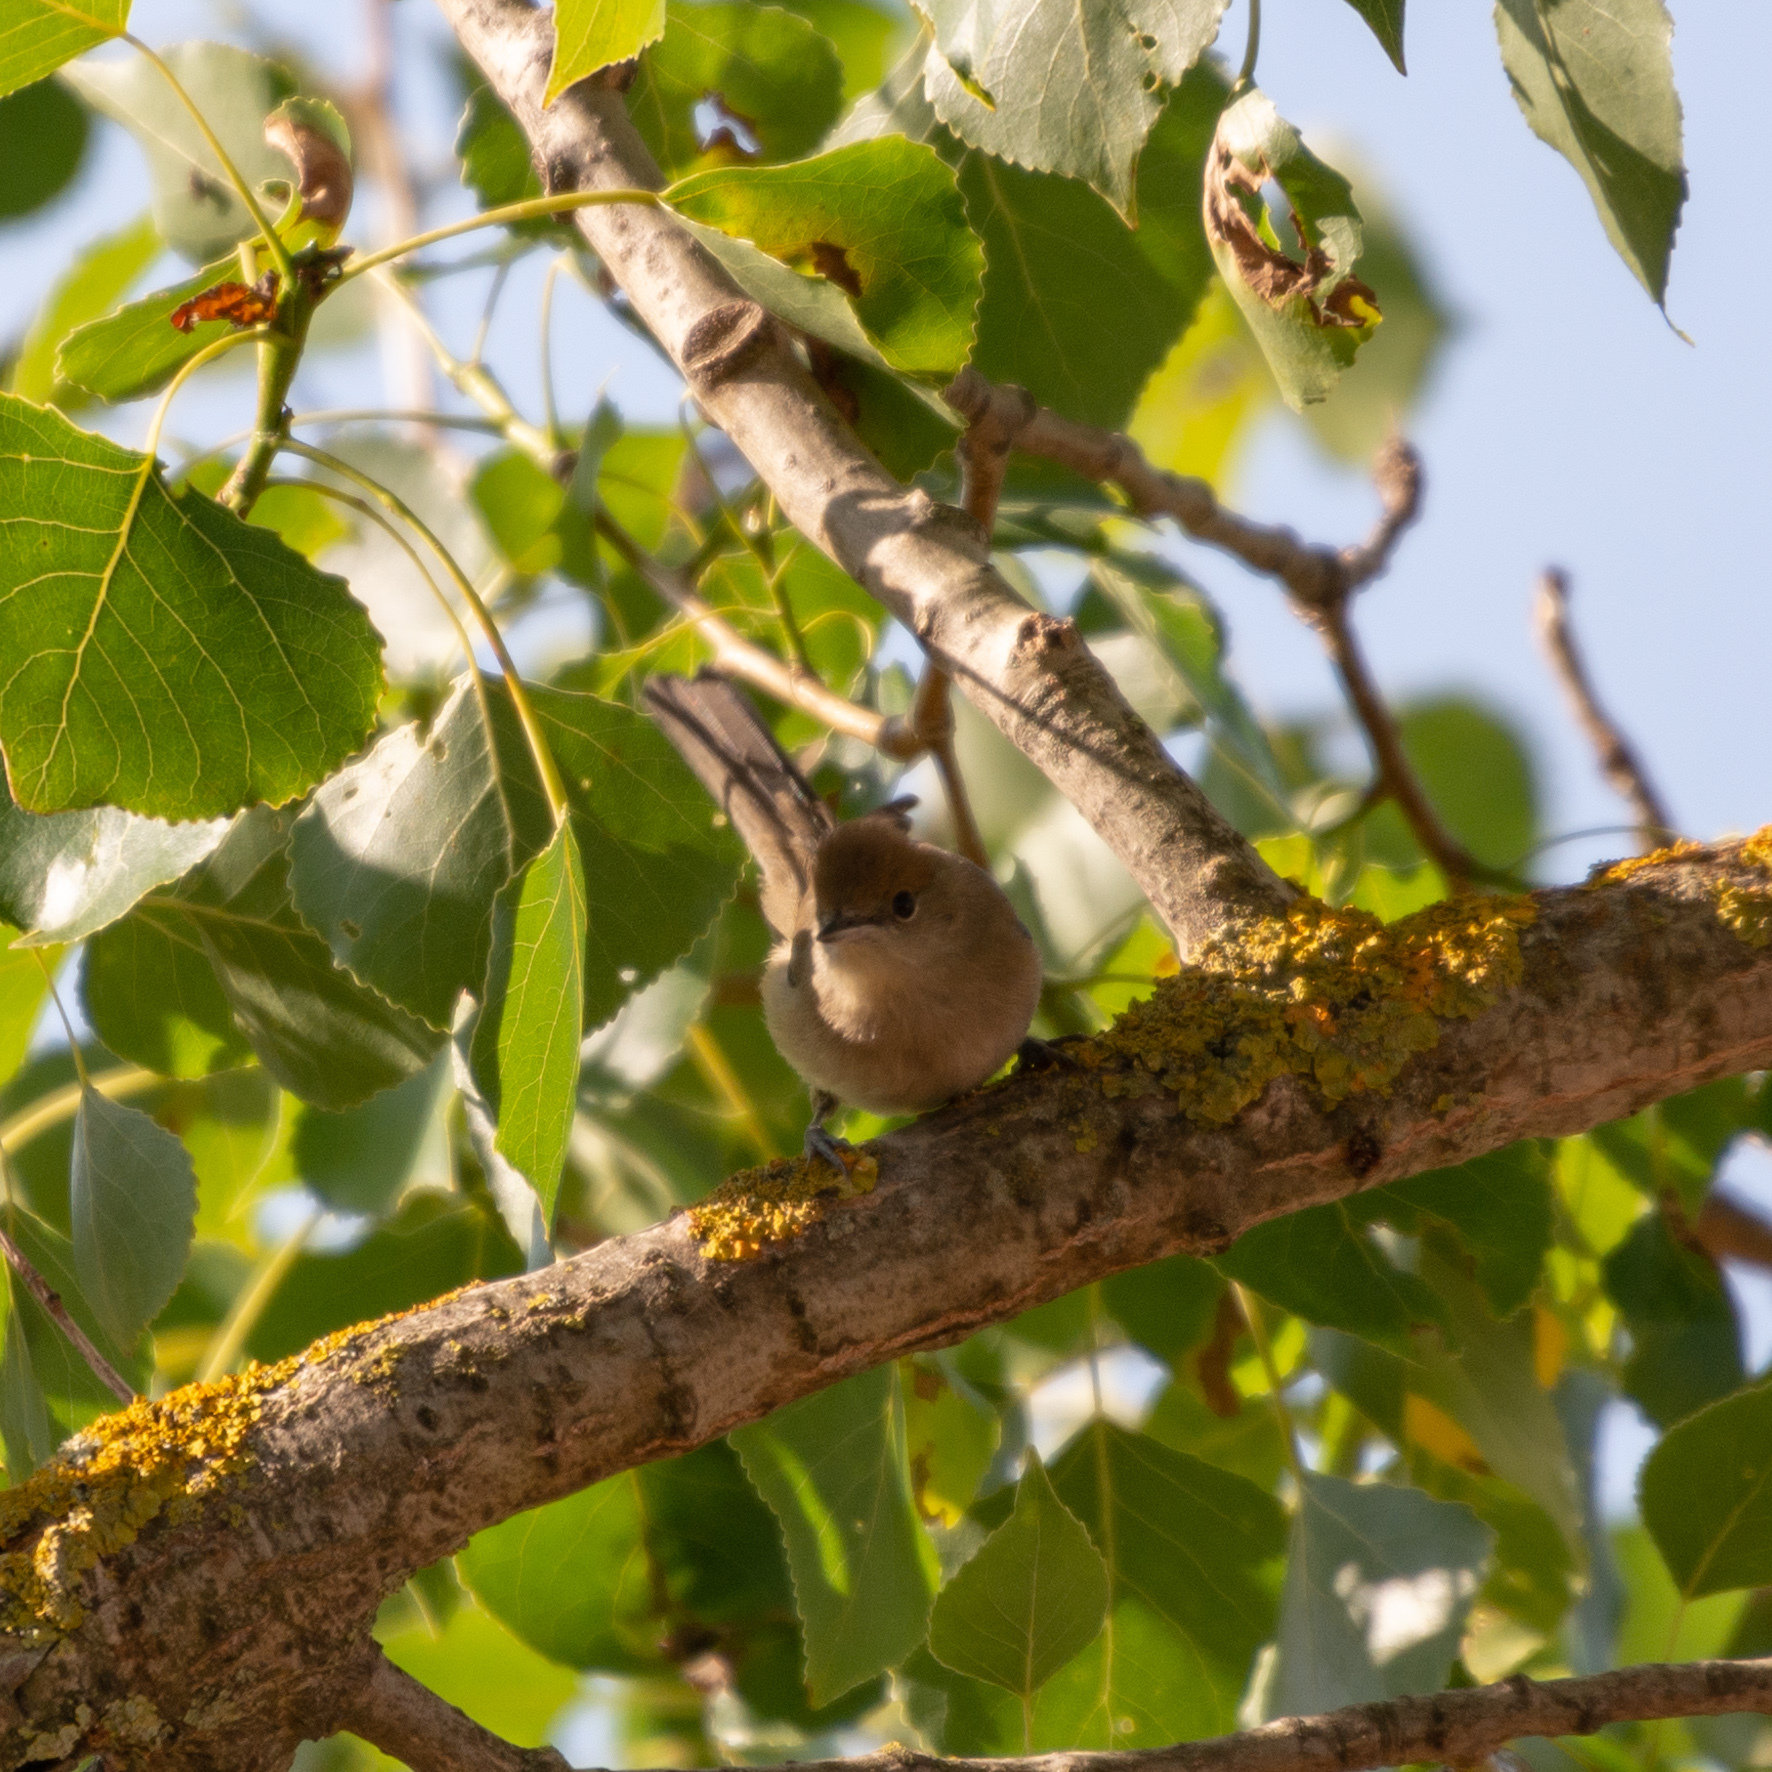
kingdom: Animalia
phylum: Chordata
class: Aves
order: Passeriformes
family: Sylviidae
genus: Sylvia
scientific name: Sylvia atricapilla
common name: Eurasian blackcap
